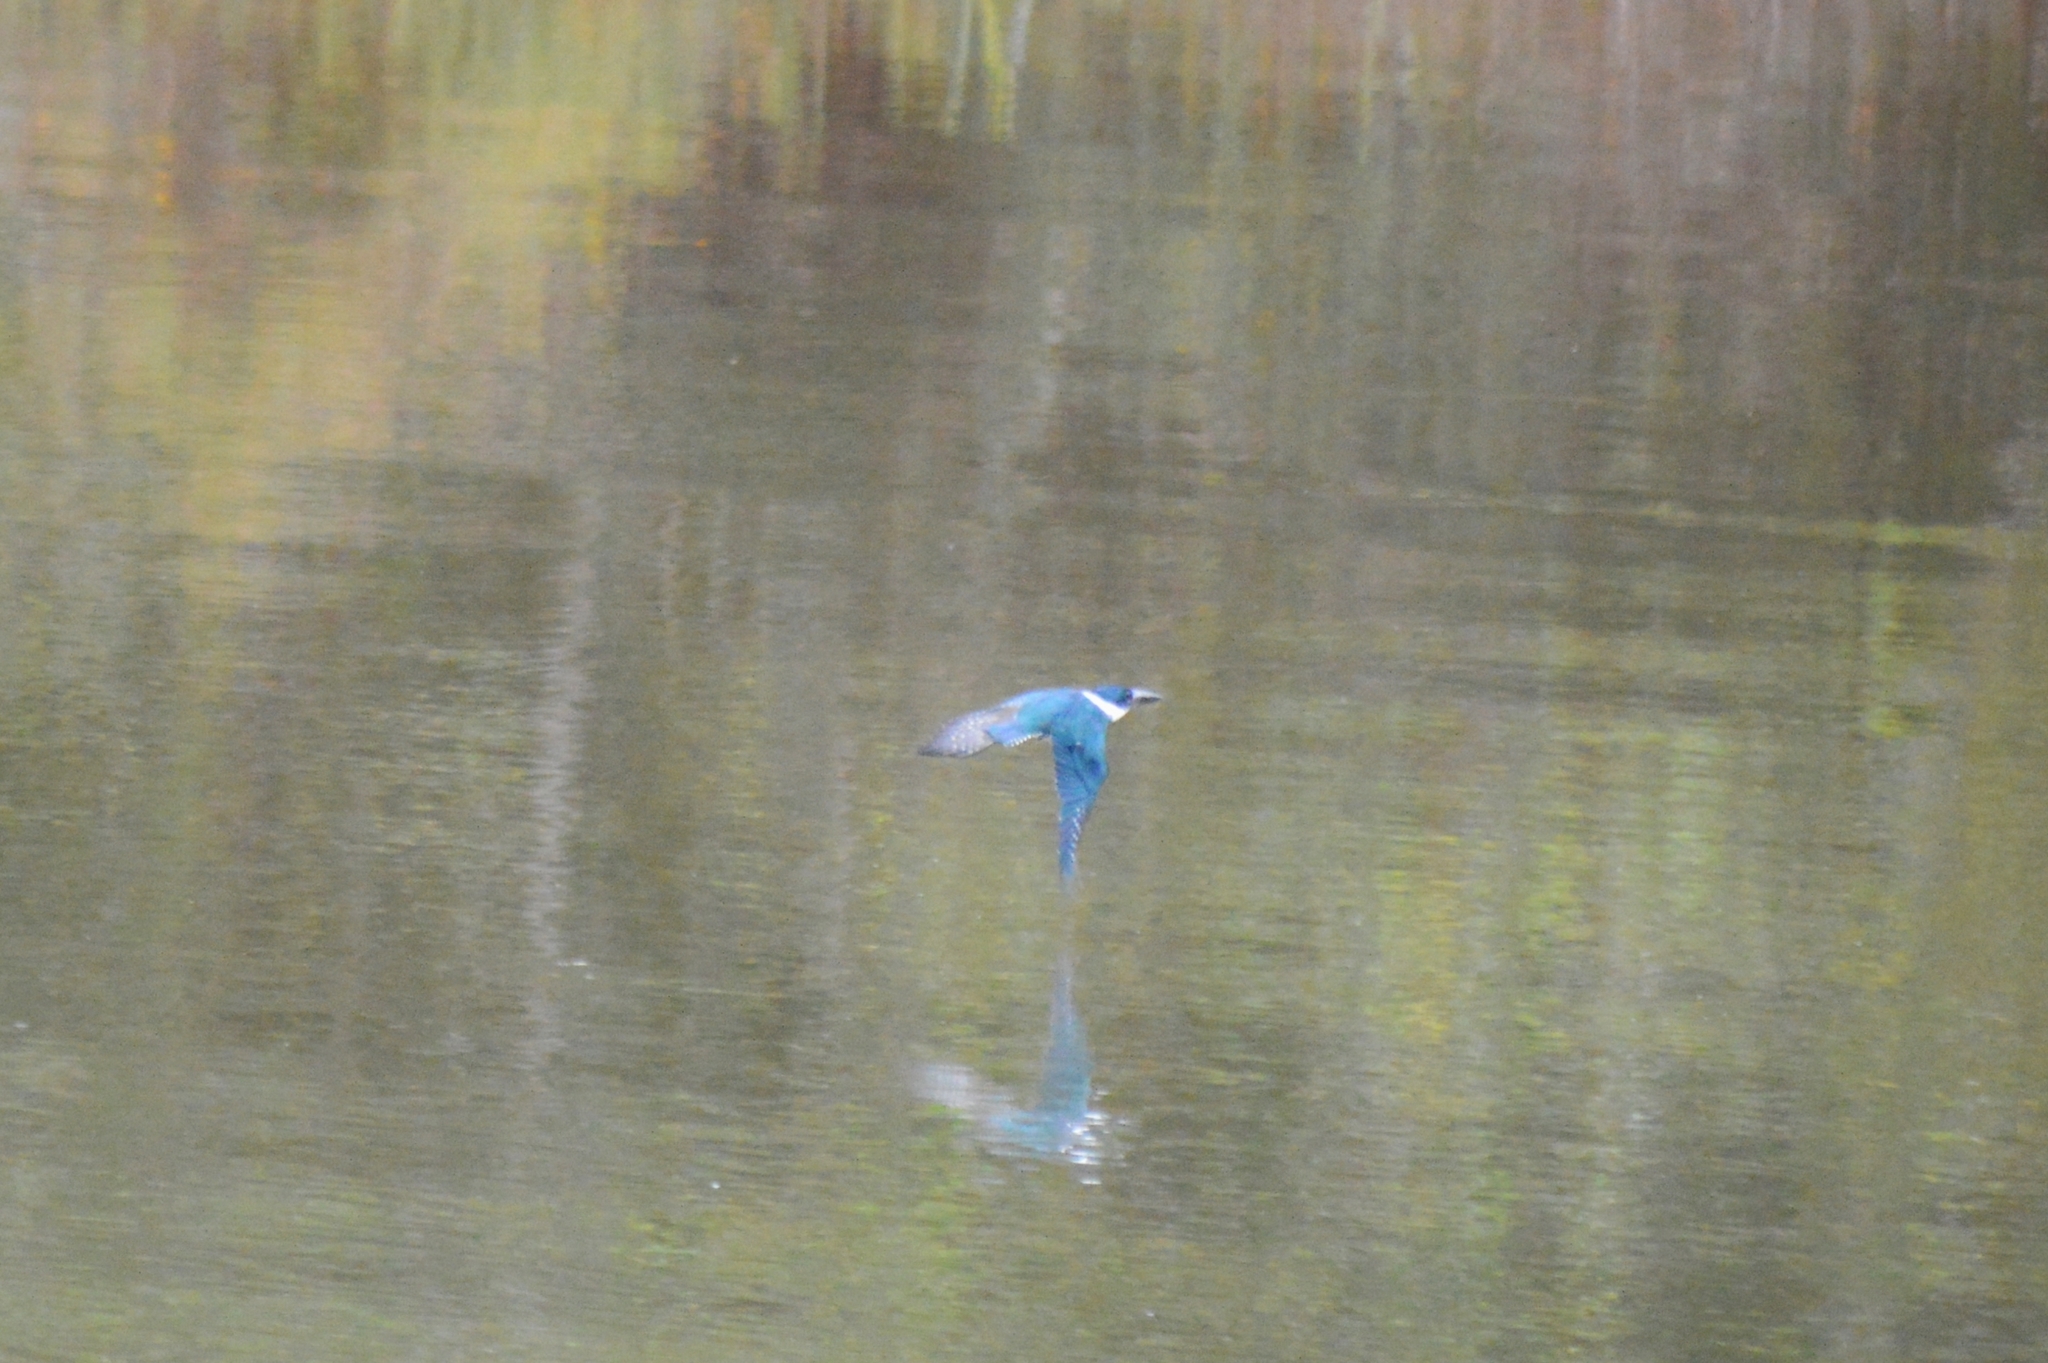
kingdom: Animalia
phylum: Chordata
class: Aves
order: Coraciiformes
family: Alcedinidae
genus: Chloroceryle
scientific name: Chloroceryle amazona
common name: Amazon kingfisher
